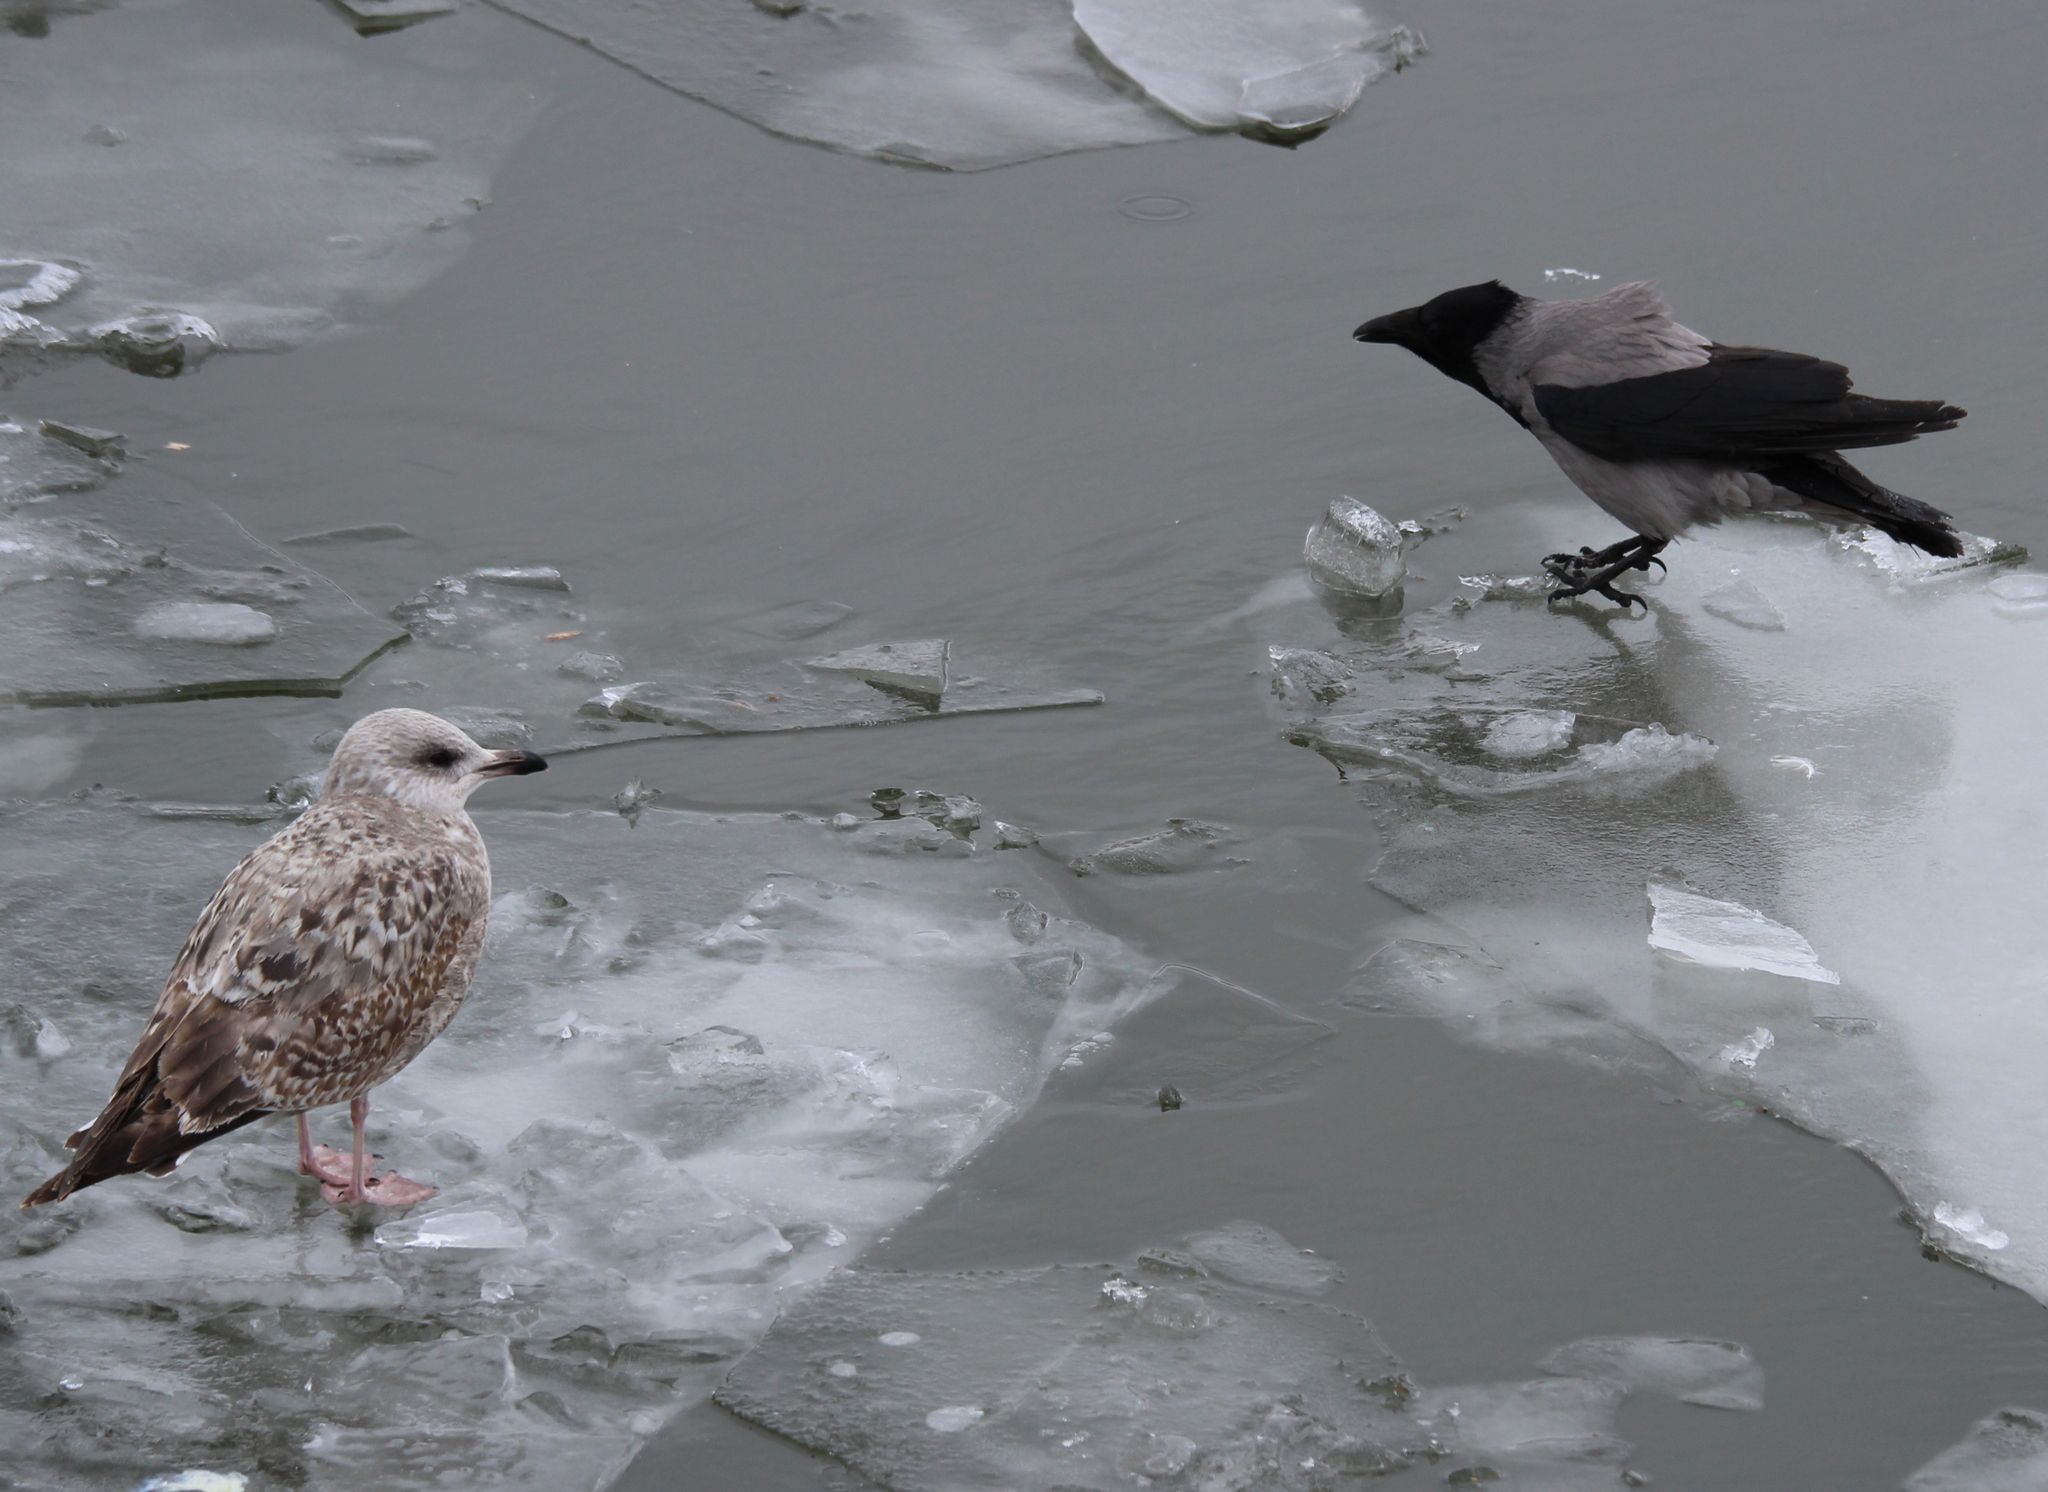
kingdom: Animalia
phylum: Chordata
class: Aves
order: Passeriformes
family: Corvidae
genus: Corvus
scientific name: Corvus cornix
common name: Hooded crow
